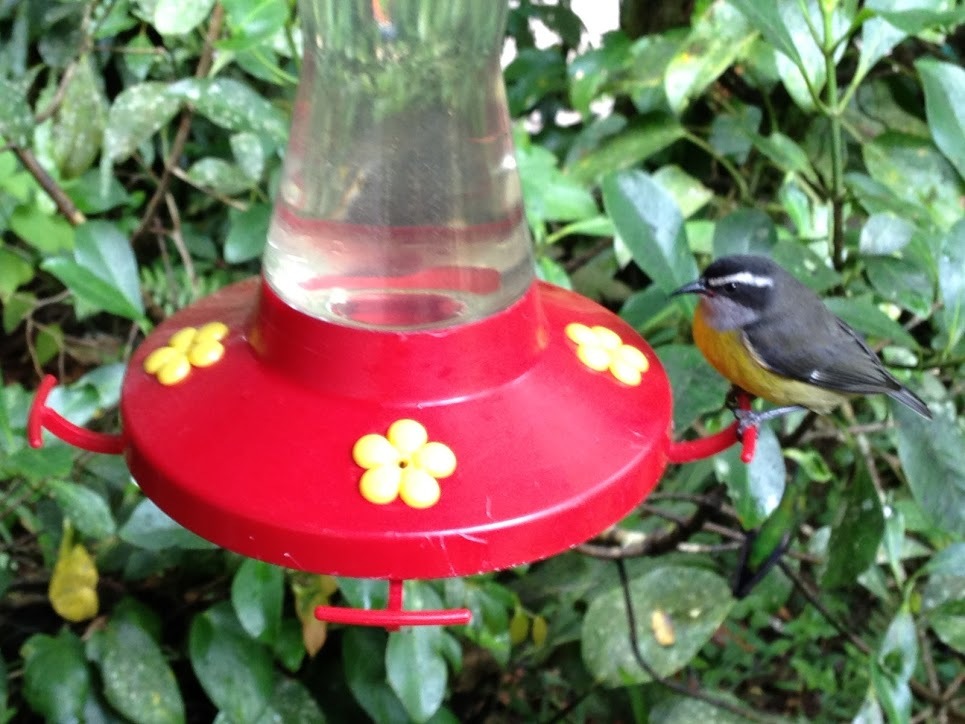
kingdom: Animalia
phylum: Chordata
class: Aves
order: Passeriformes
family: Thraupidae
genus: Coereba
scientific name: Coereba flaveola
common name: Bananaquit
